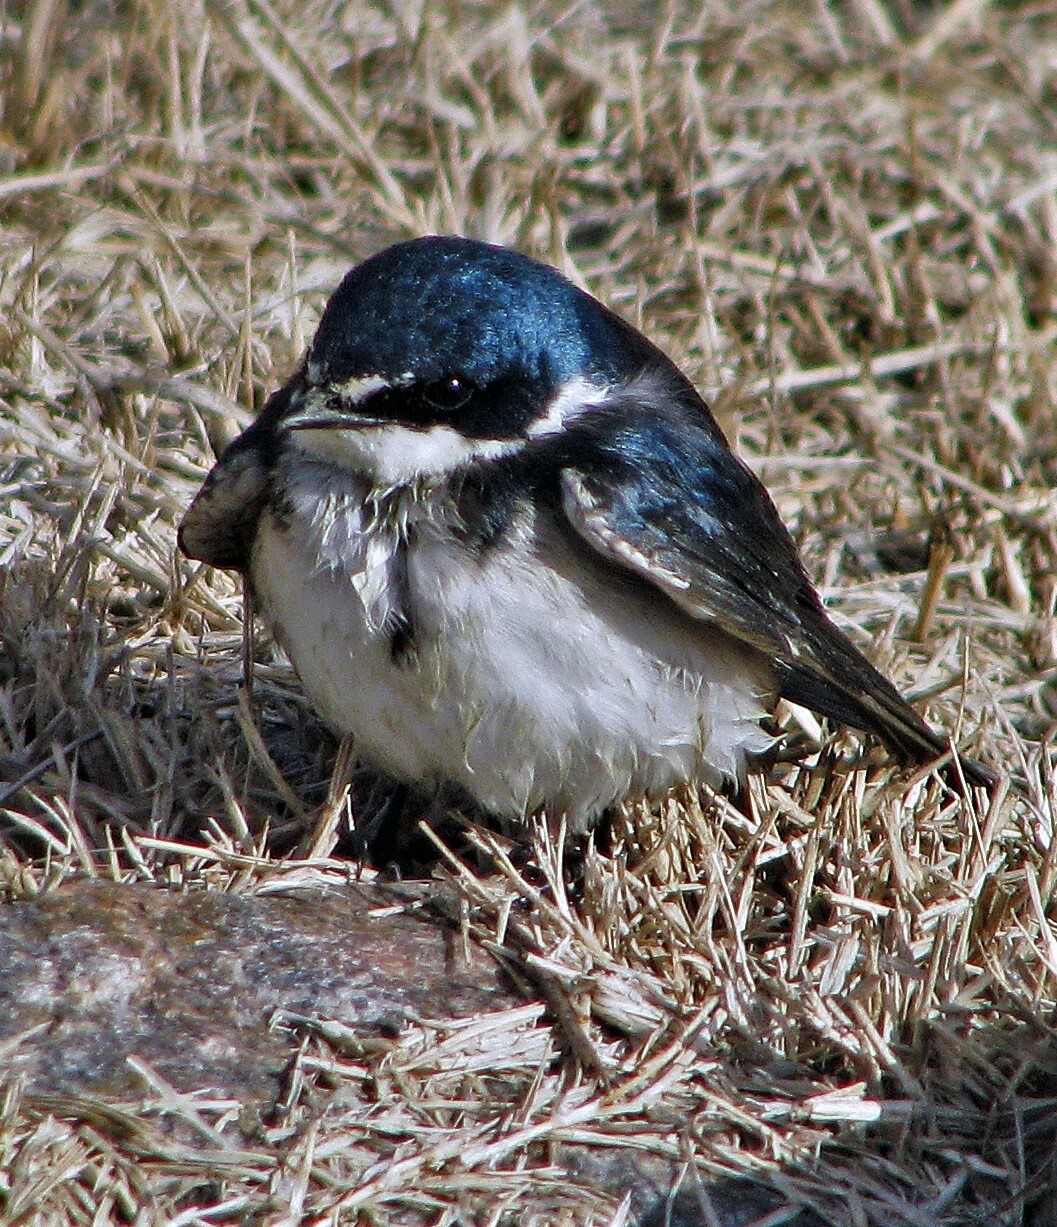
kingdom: Animalia
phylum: Chordata
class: Aves
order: Passeriformes
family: Hirundinidae
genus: Tachycineta
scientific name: Tachycineta leucorrhoa
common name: White-rumped swallow
